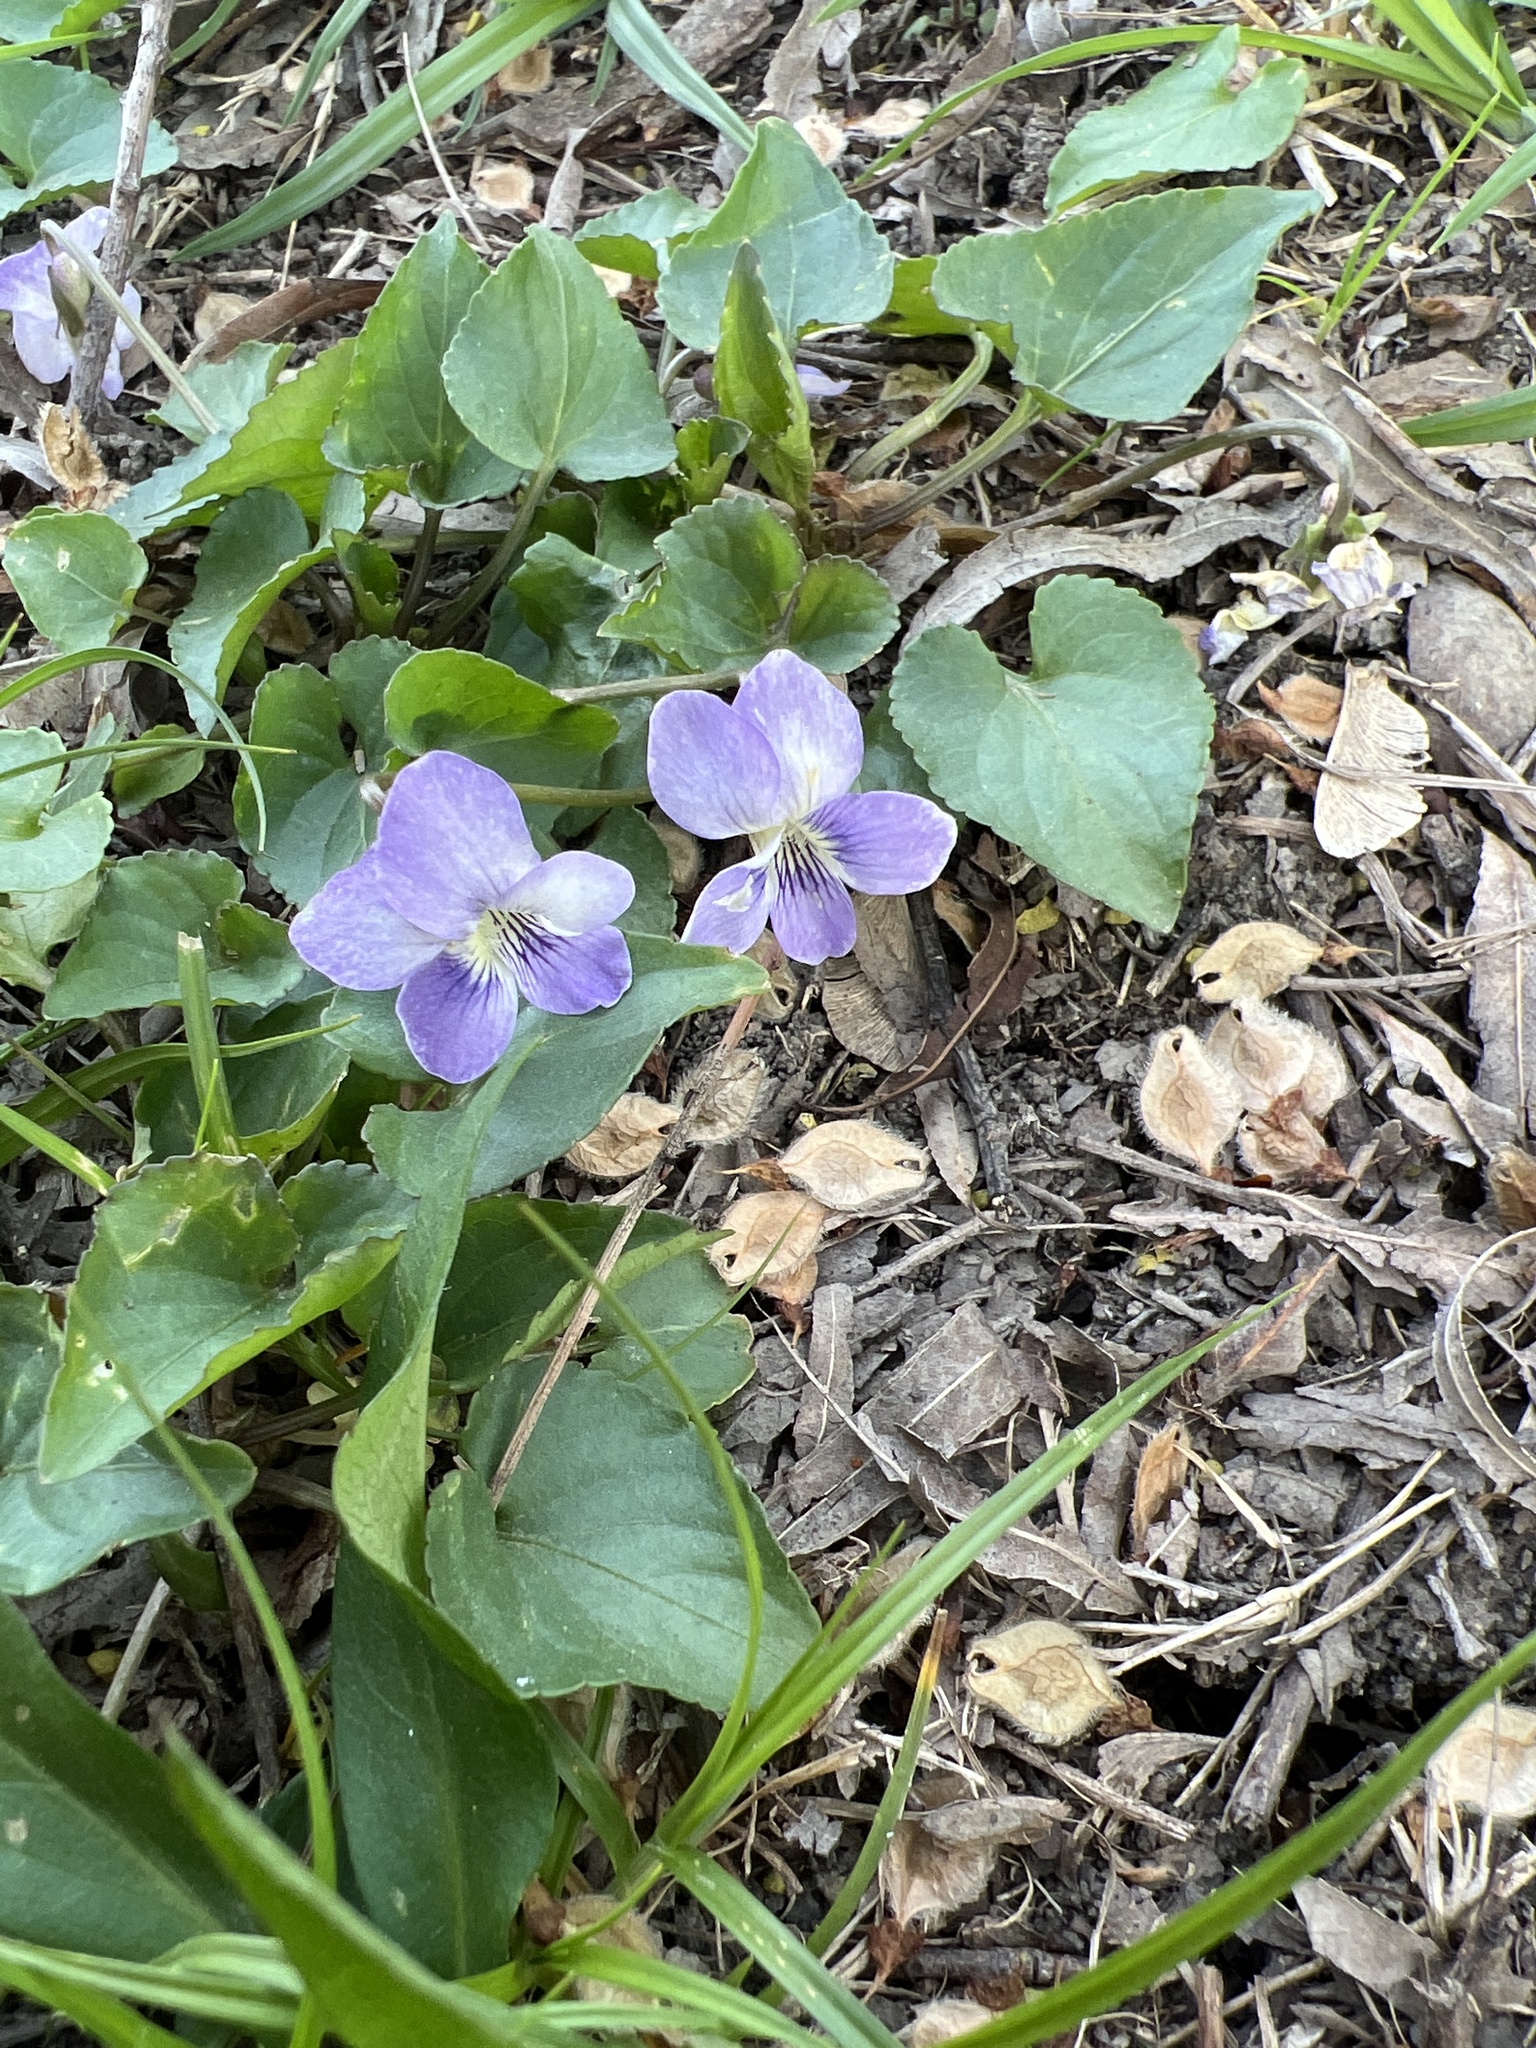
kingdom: Plantae
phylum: Tracheophyta
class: Magnoliopsida
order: Malpighiales
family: Violaceae
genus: Viola
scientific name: Viola missouriensis
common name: Missouri violet
